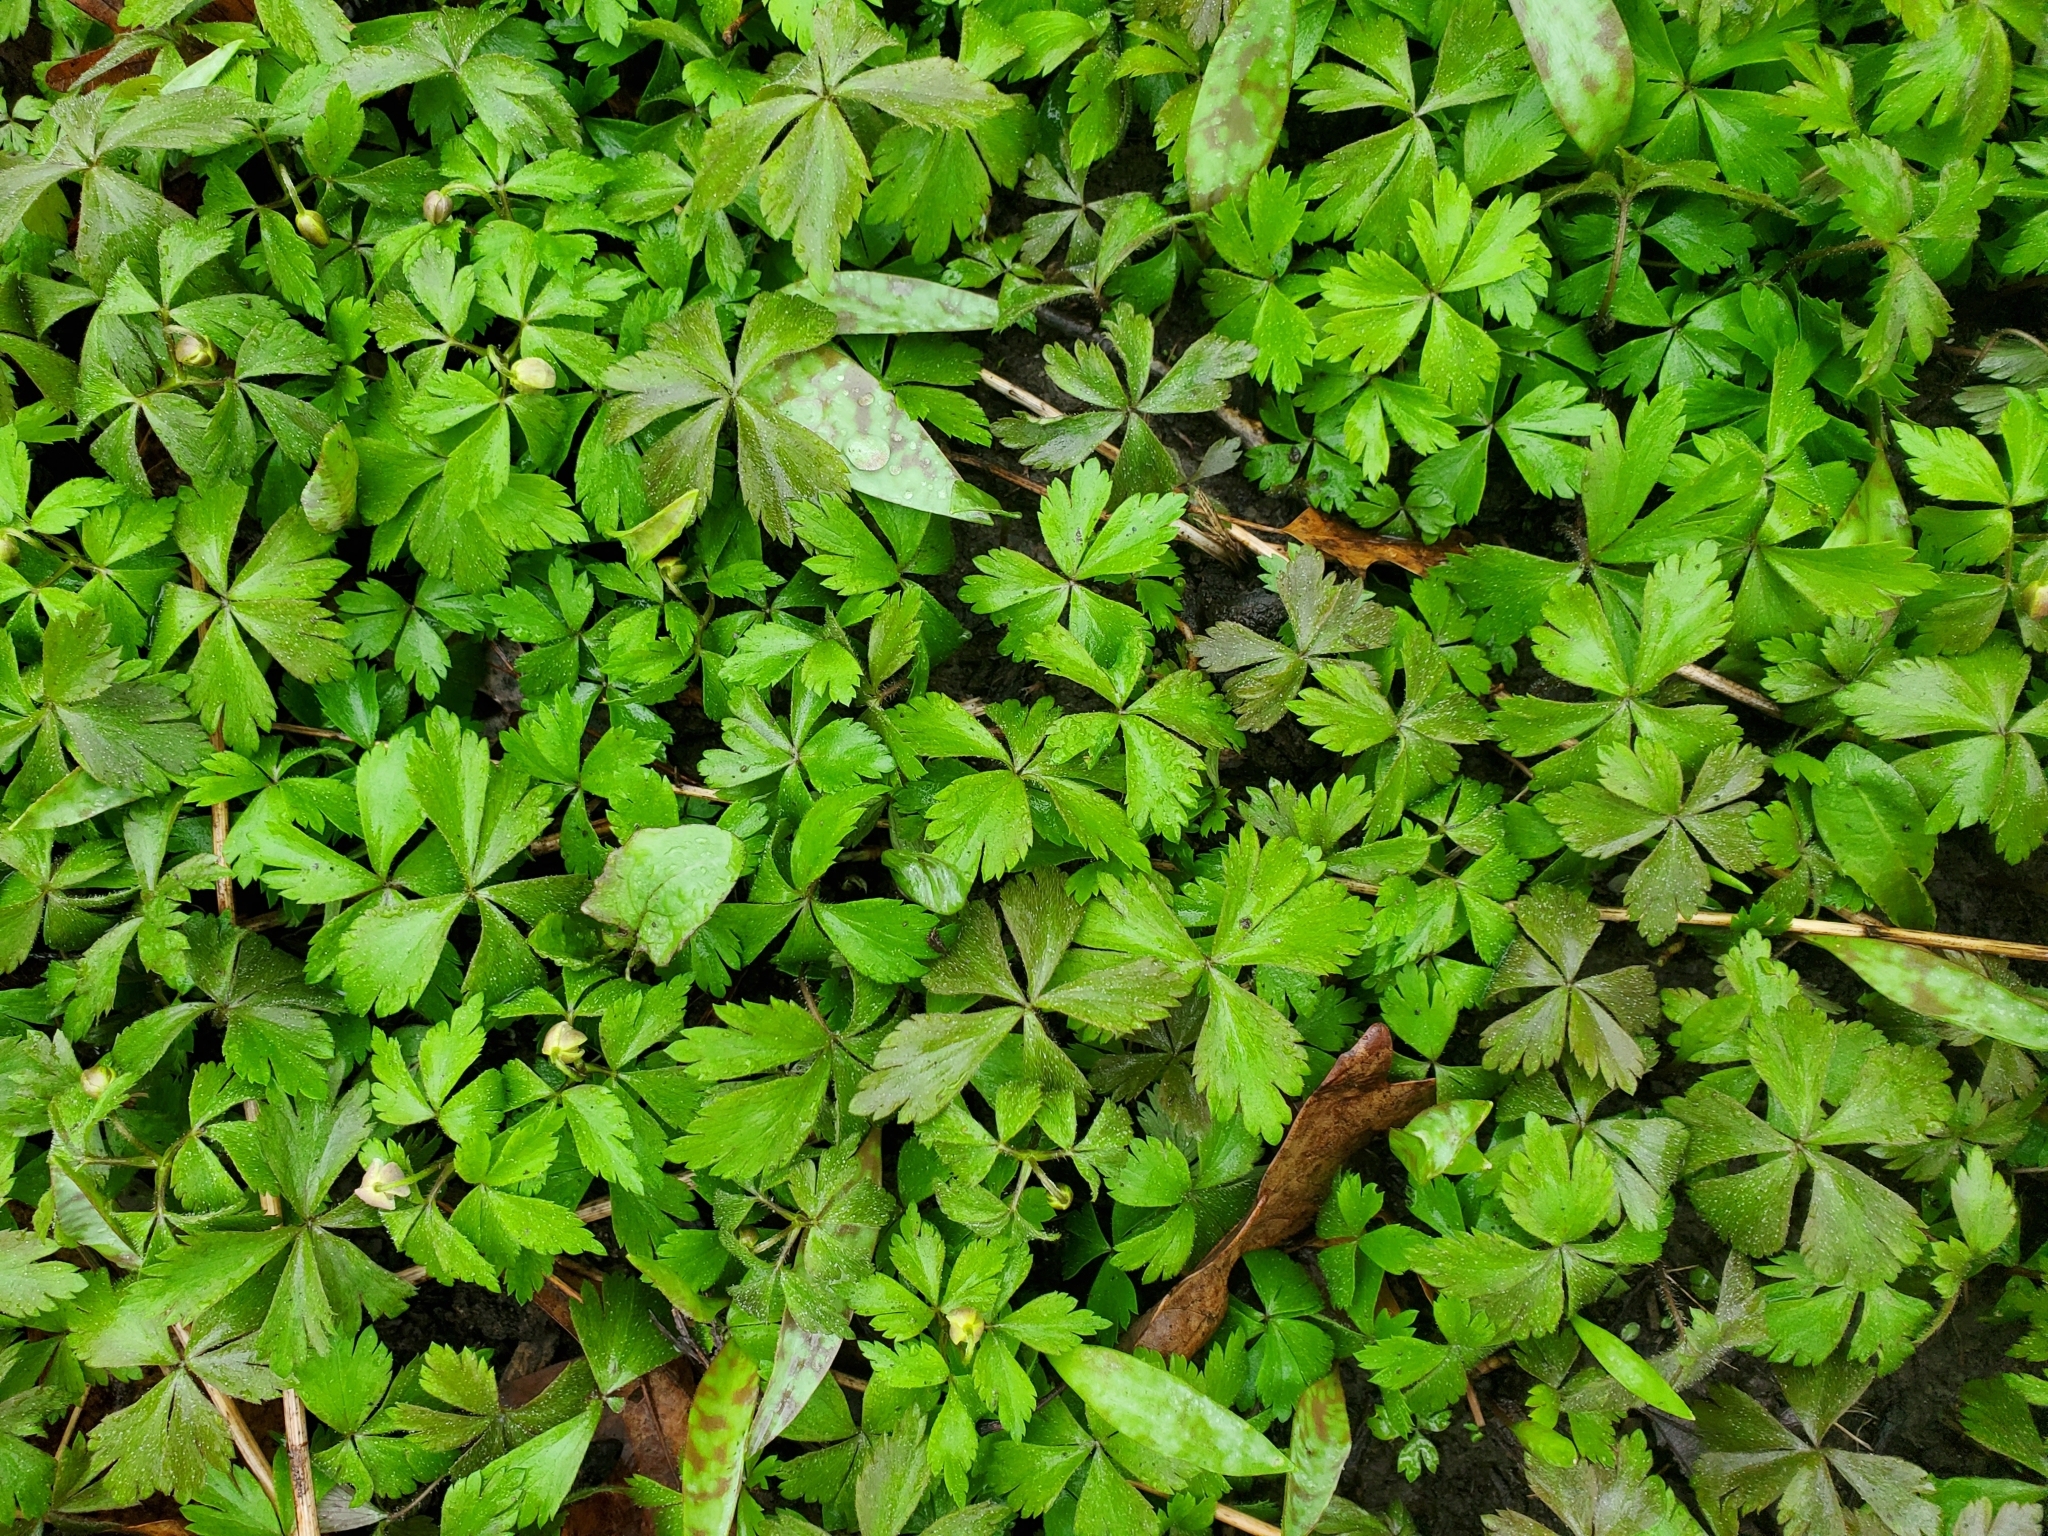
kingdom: Plantae
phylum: Tracheophyta
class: Magnoliopsida
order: Ranunculales
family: Ranunculaceae
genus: Anemone
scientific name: Anemone quinquefolia
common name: Wood anemone
